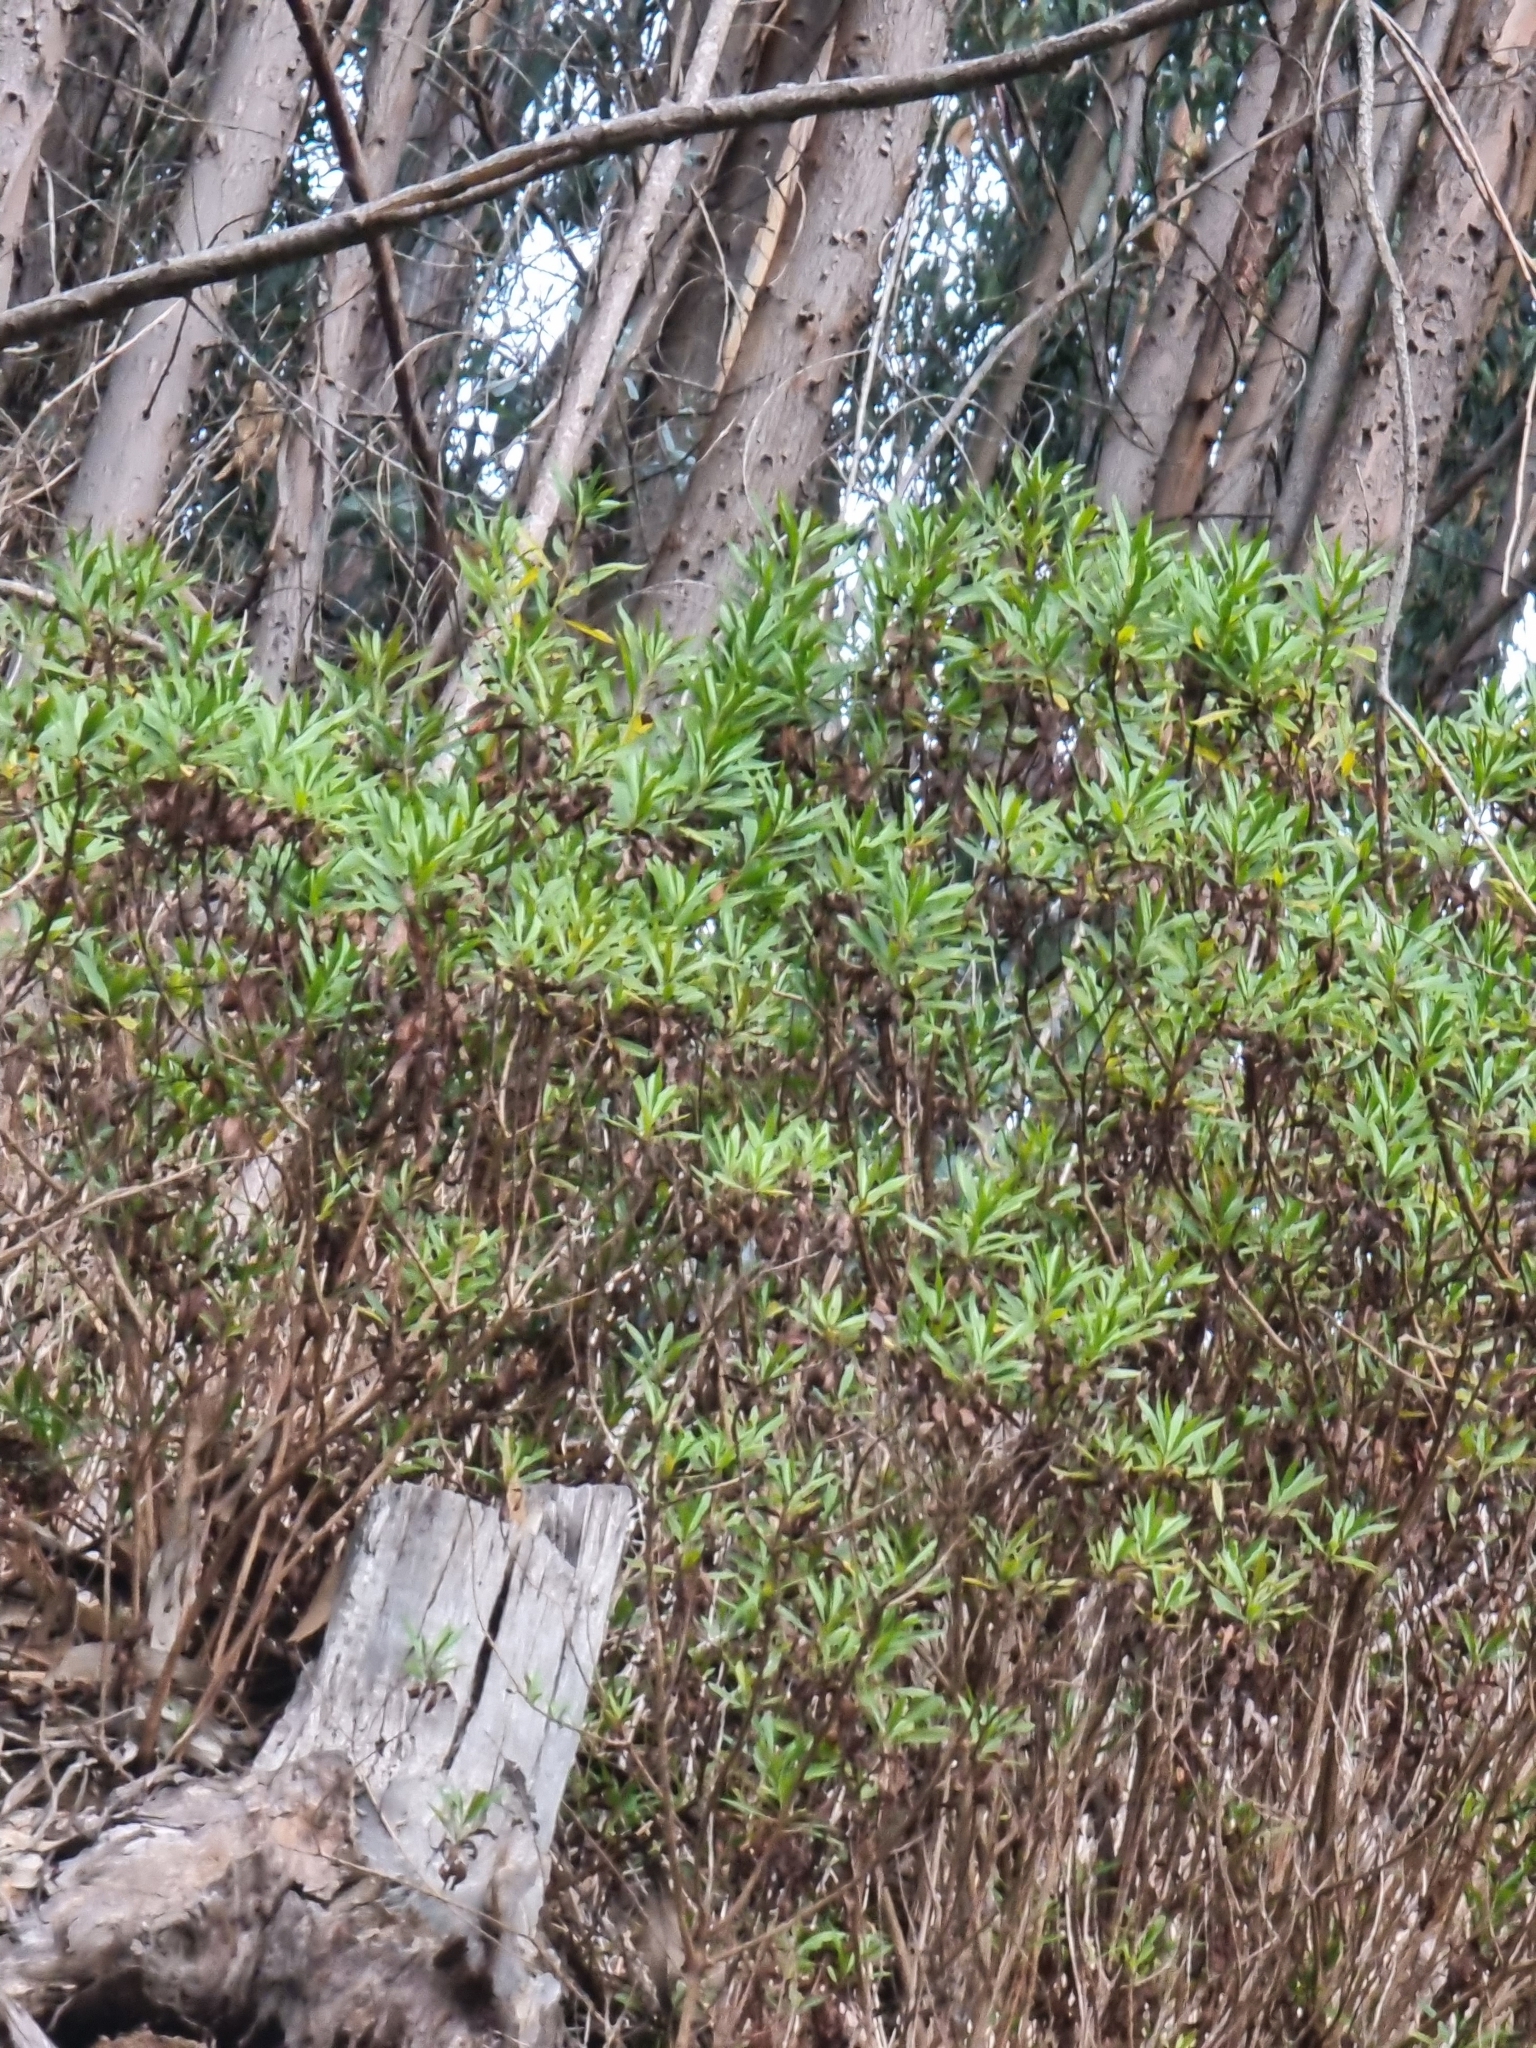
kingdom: Plantae
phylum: Tracheophyta
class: Magnoliopsida
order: Lamiales
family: Plantaginaceae
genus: Globularia
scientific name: Globularia salicina
